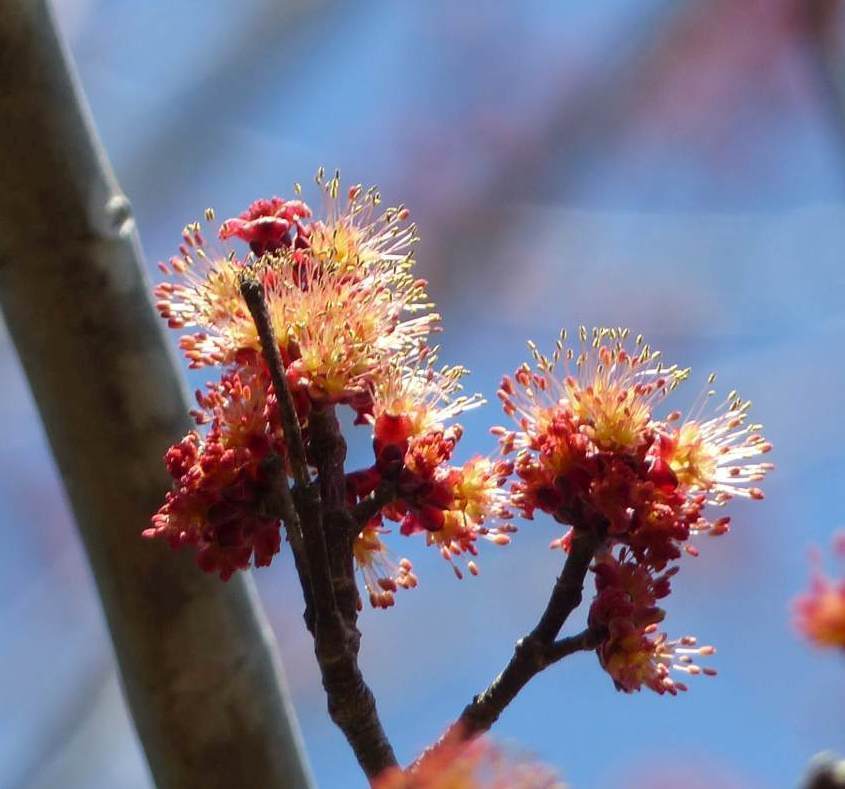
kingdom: Plantae
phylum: Tracheophyta
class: Magnoliopsida
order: Sapindales
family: Sapindaceae
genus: Acer
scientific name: Acer rubrum
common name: Red maple
